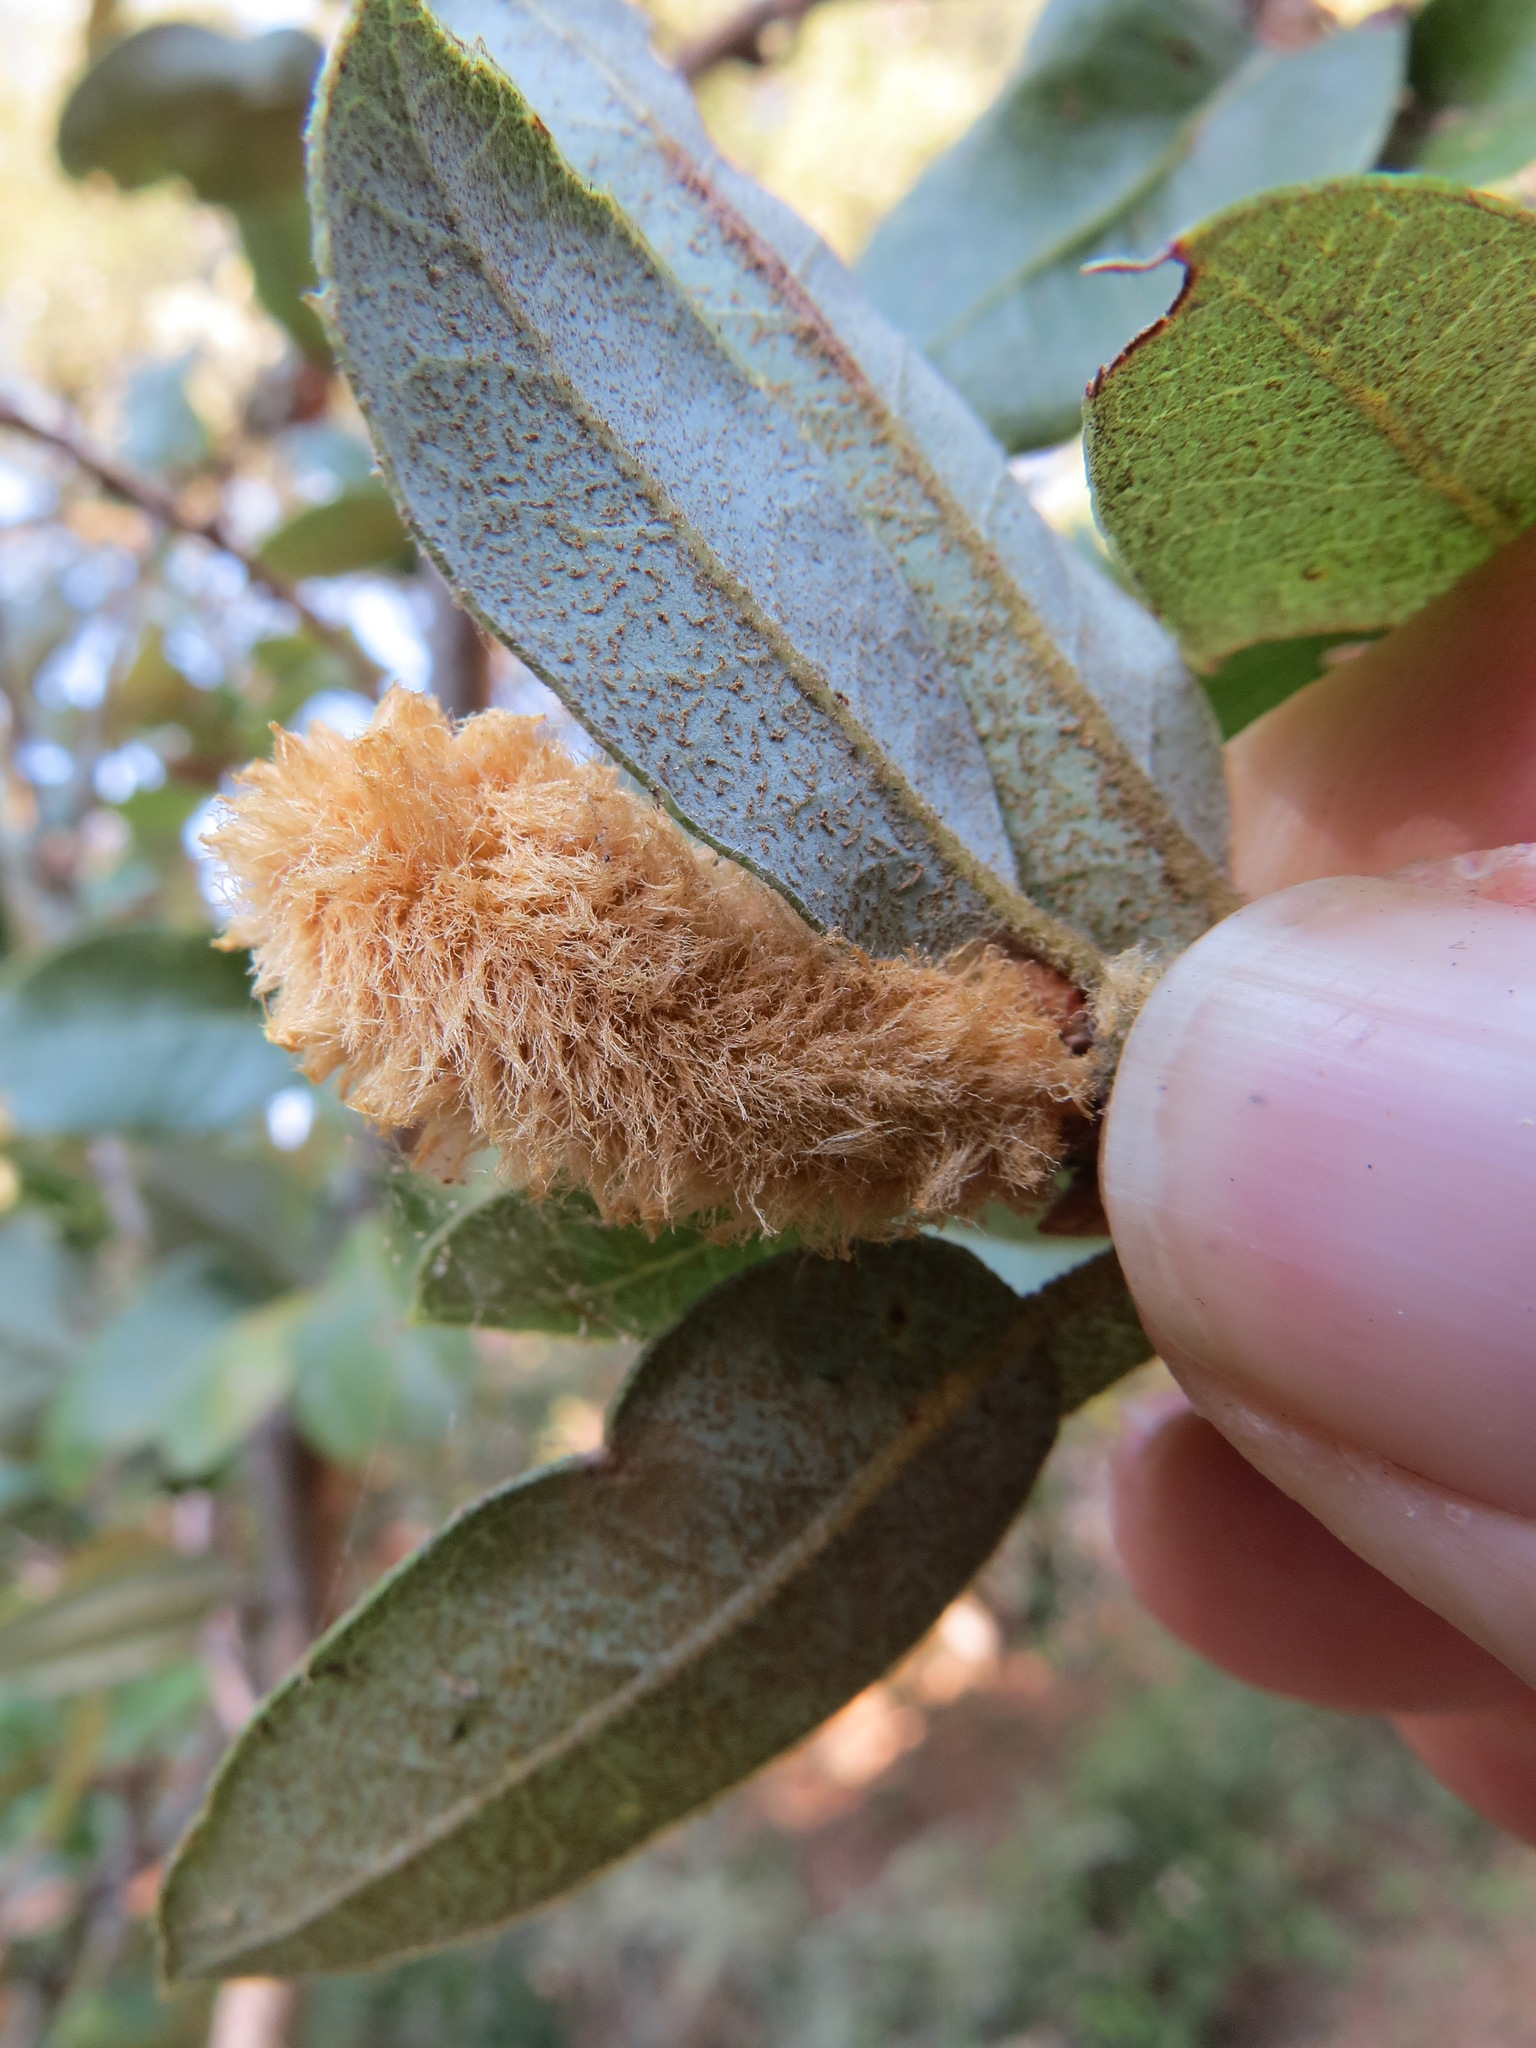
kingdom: Animalia
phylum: Arthropoda
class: Insecta
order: Hymenoptera
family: Cynipidae
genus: Heteroecus
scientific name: Heteroecus
